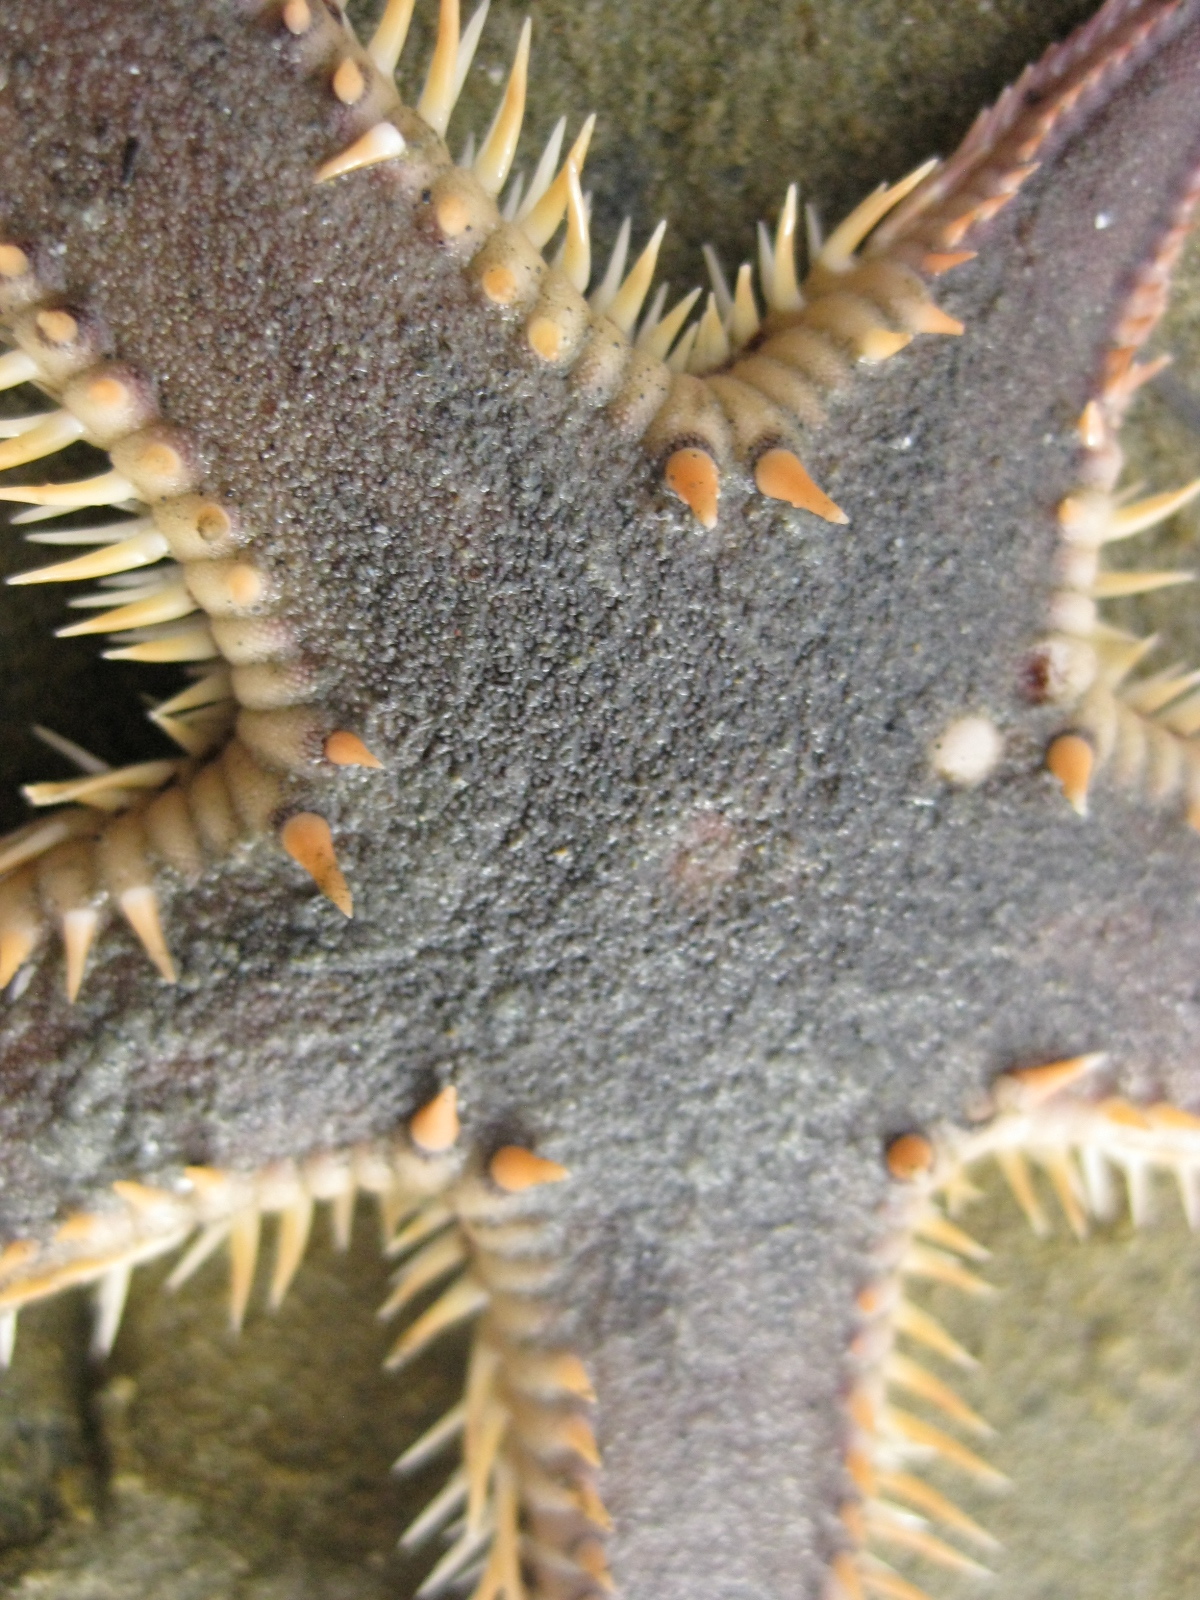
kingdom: Animalia
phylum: Echinodermata
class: Asteroidea
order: Paxillosida
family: Astropectinidae
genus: Astropecten
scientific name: Astropecten polyacanthus
